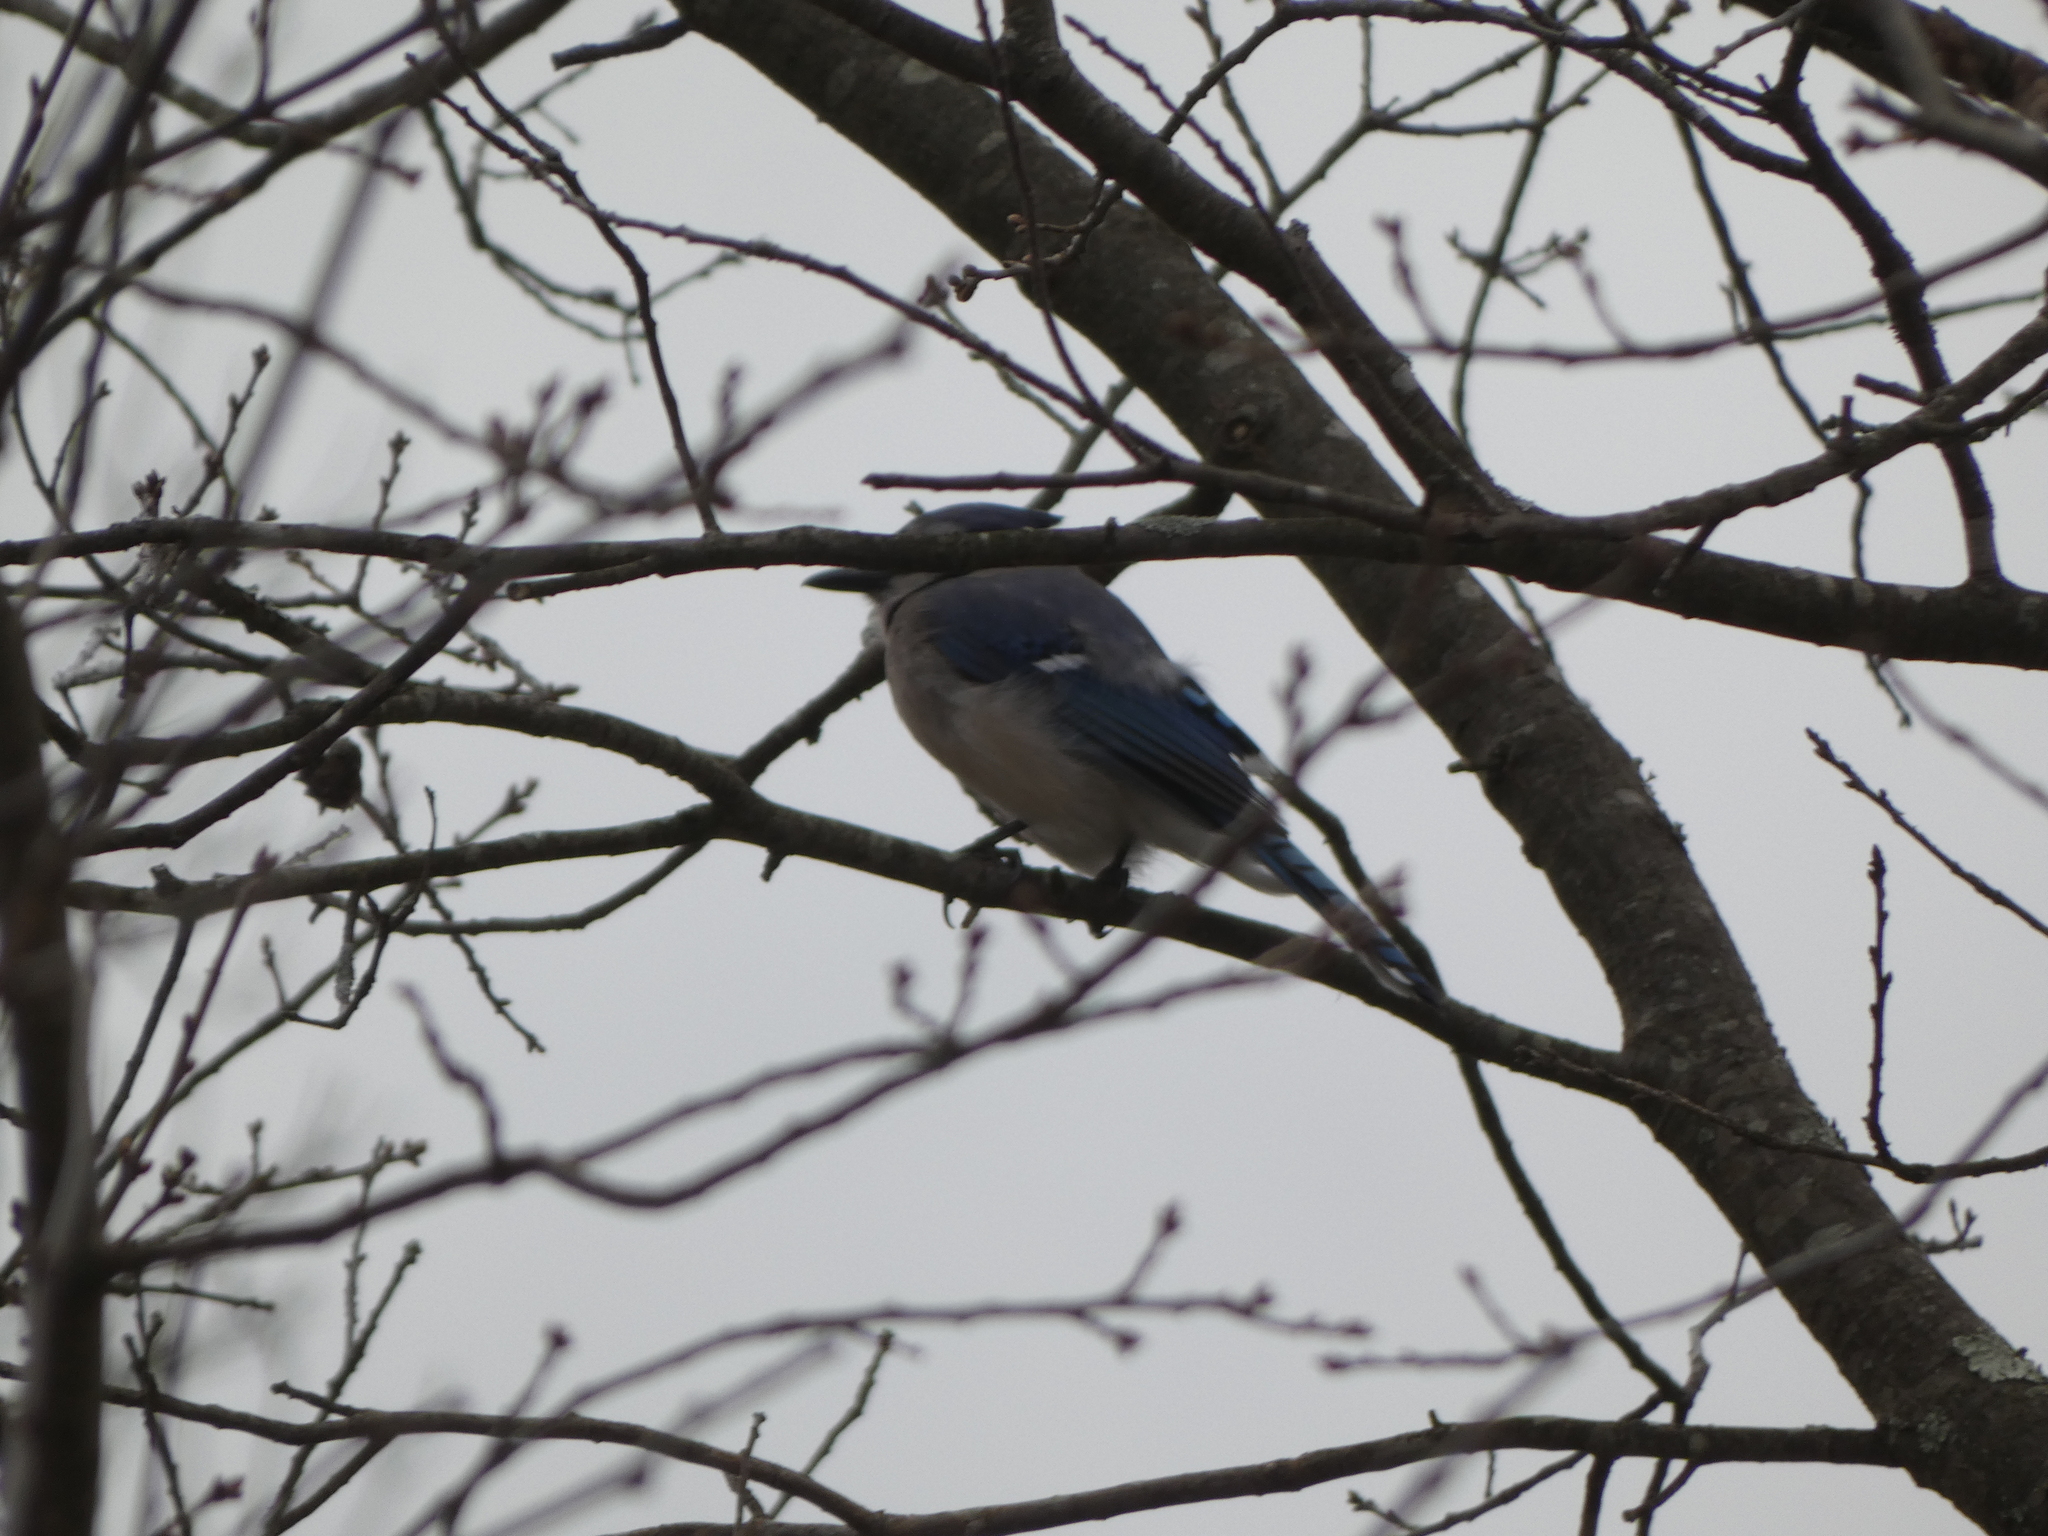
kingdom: Animalia
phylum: Chordata
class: Aves
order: Passeriformes
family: Corvidae
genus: Cyanocitta
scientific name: Cyanocitta cristata
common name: Blue jay
